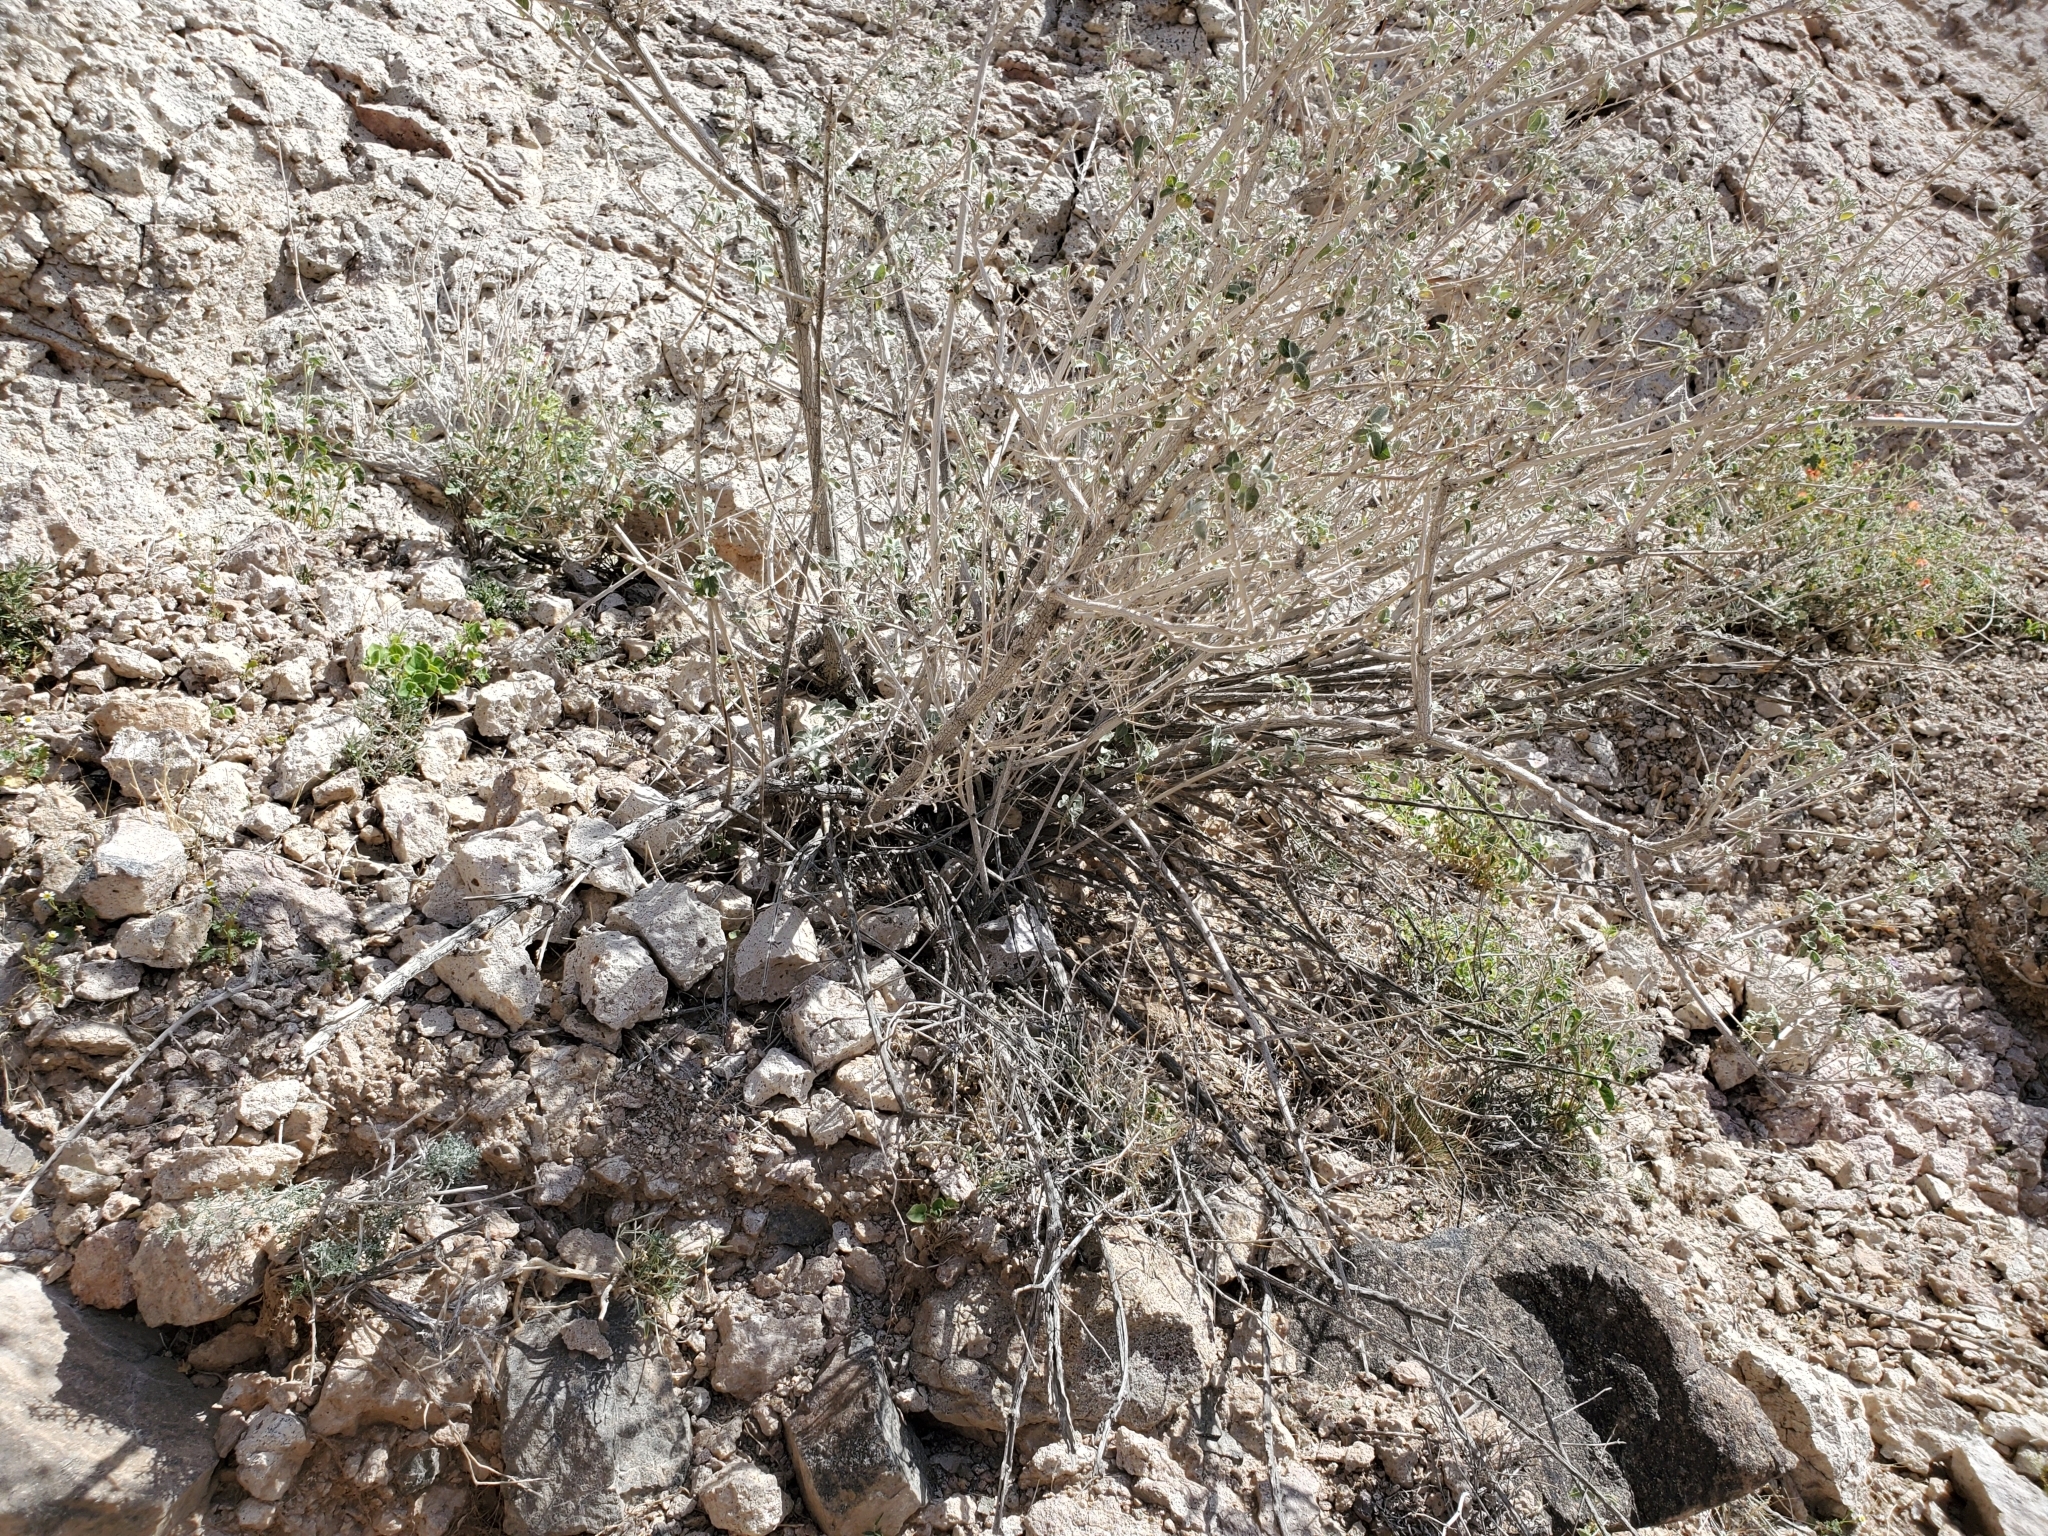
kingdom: Plantae
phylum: Tracheophyta
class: Magnoliopsida
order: Lamiales
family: Lamiaceae
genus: Condea
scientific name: Condea emoryi
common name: Chia
